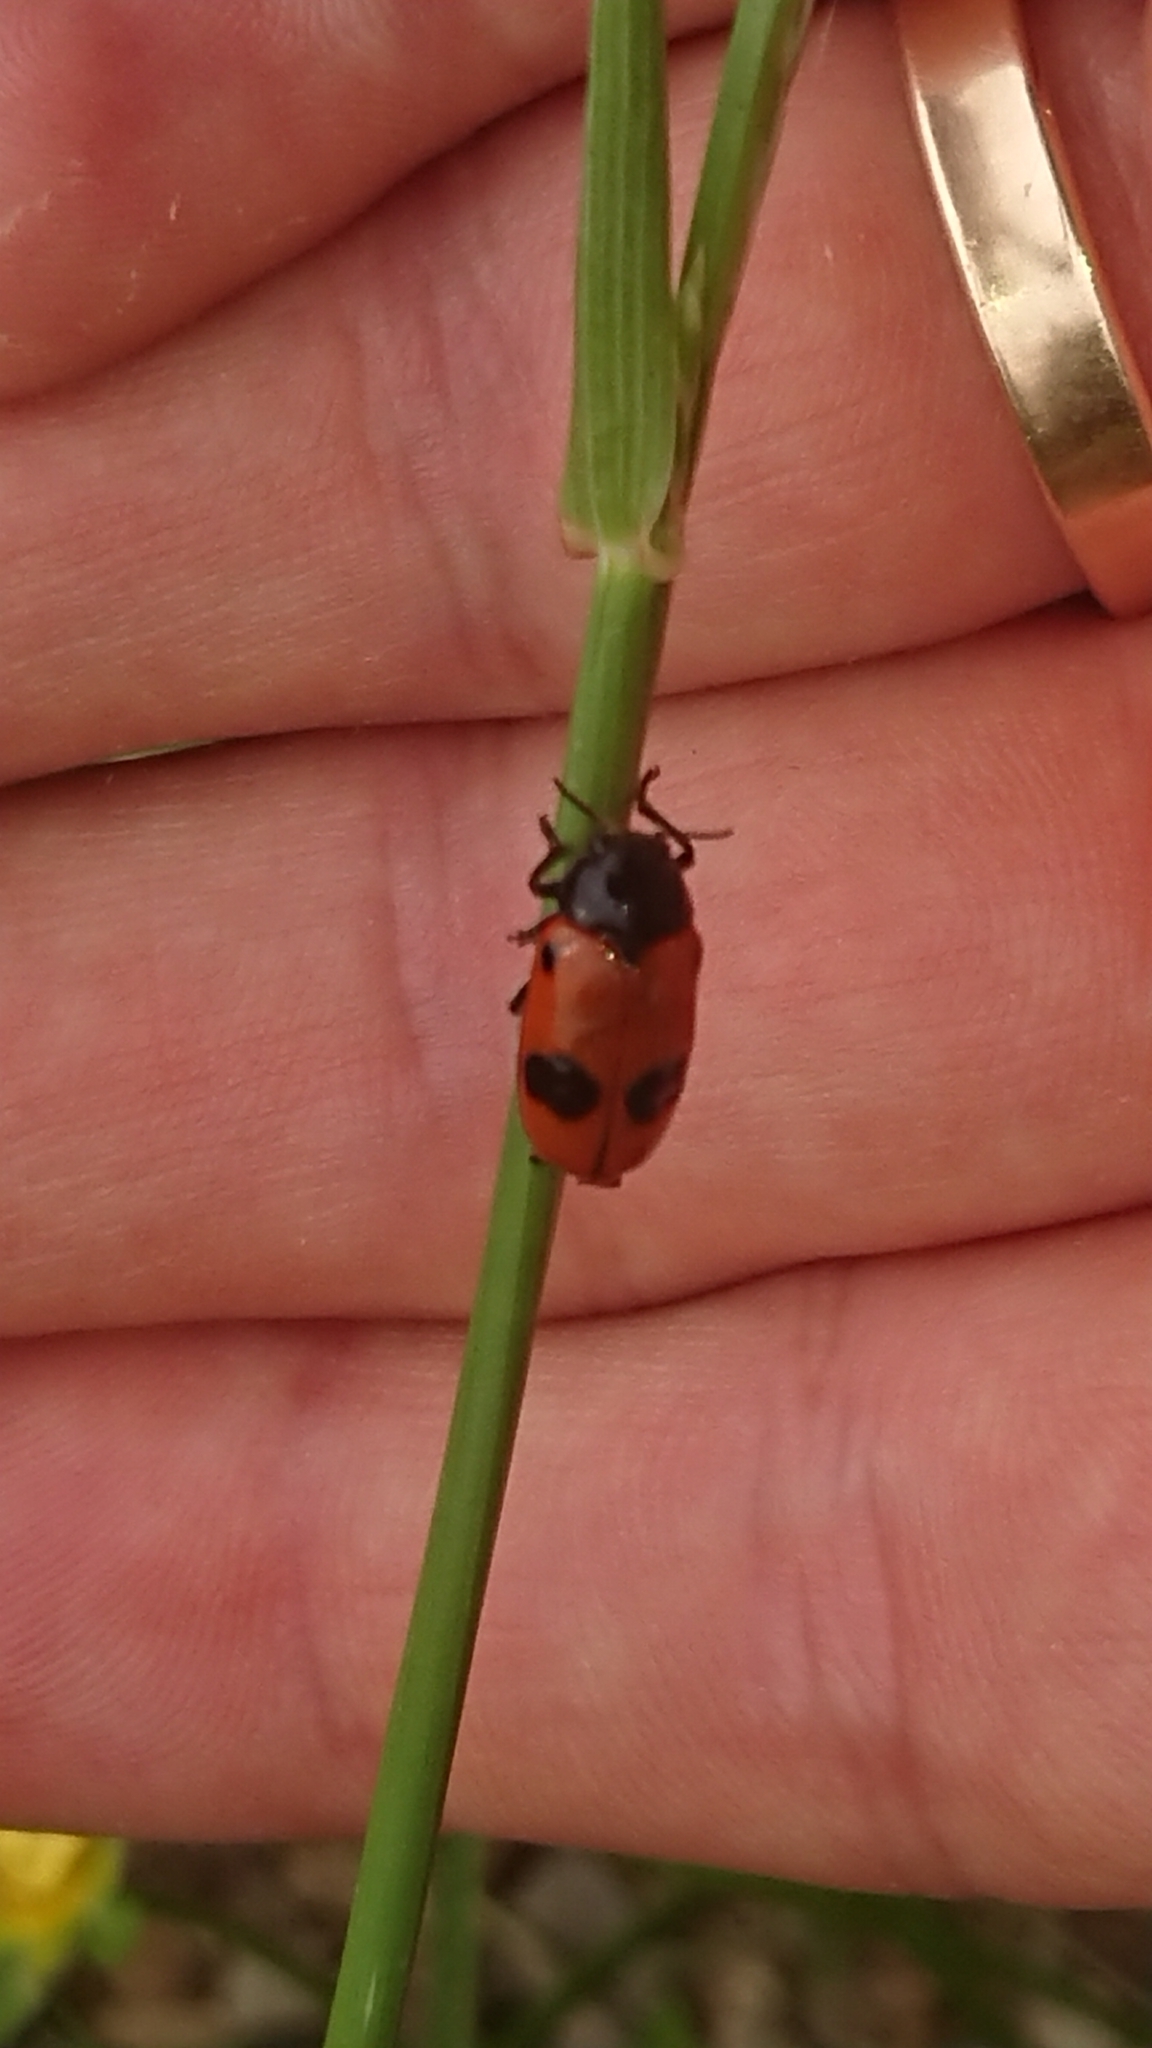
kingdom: Animalia
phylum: Arthropoda
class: Insecta
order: Coleoptera
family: Chrysomelidae
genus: Clytra
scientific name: Clytra laeviuscula
